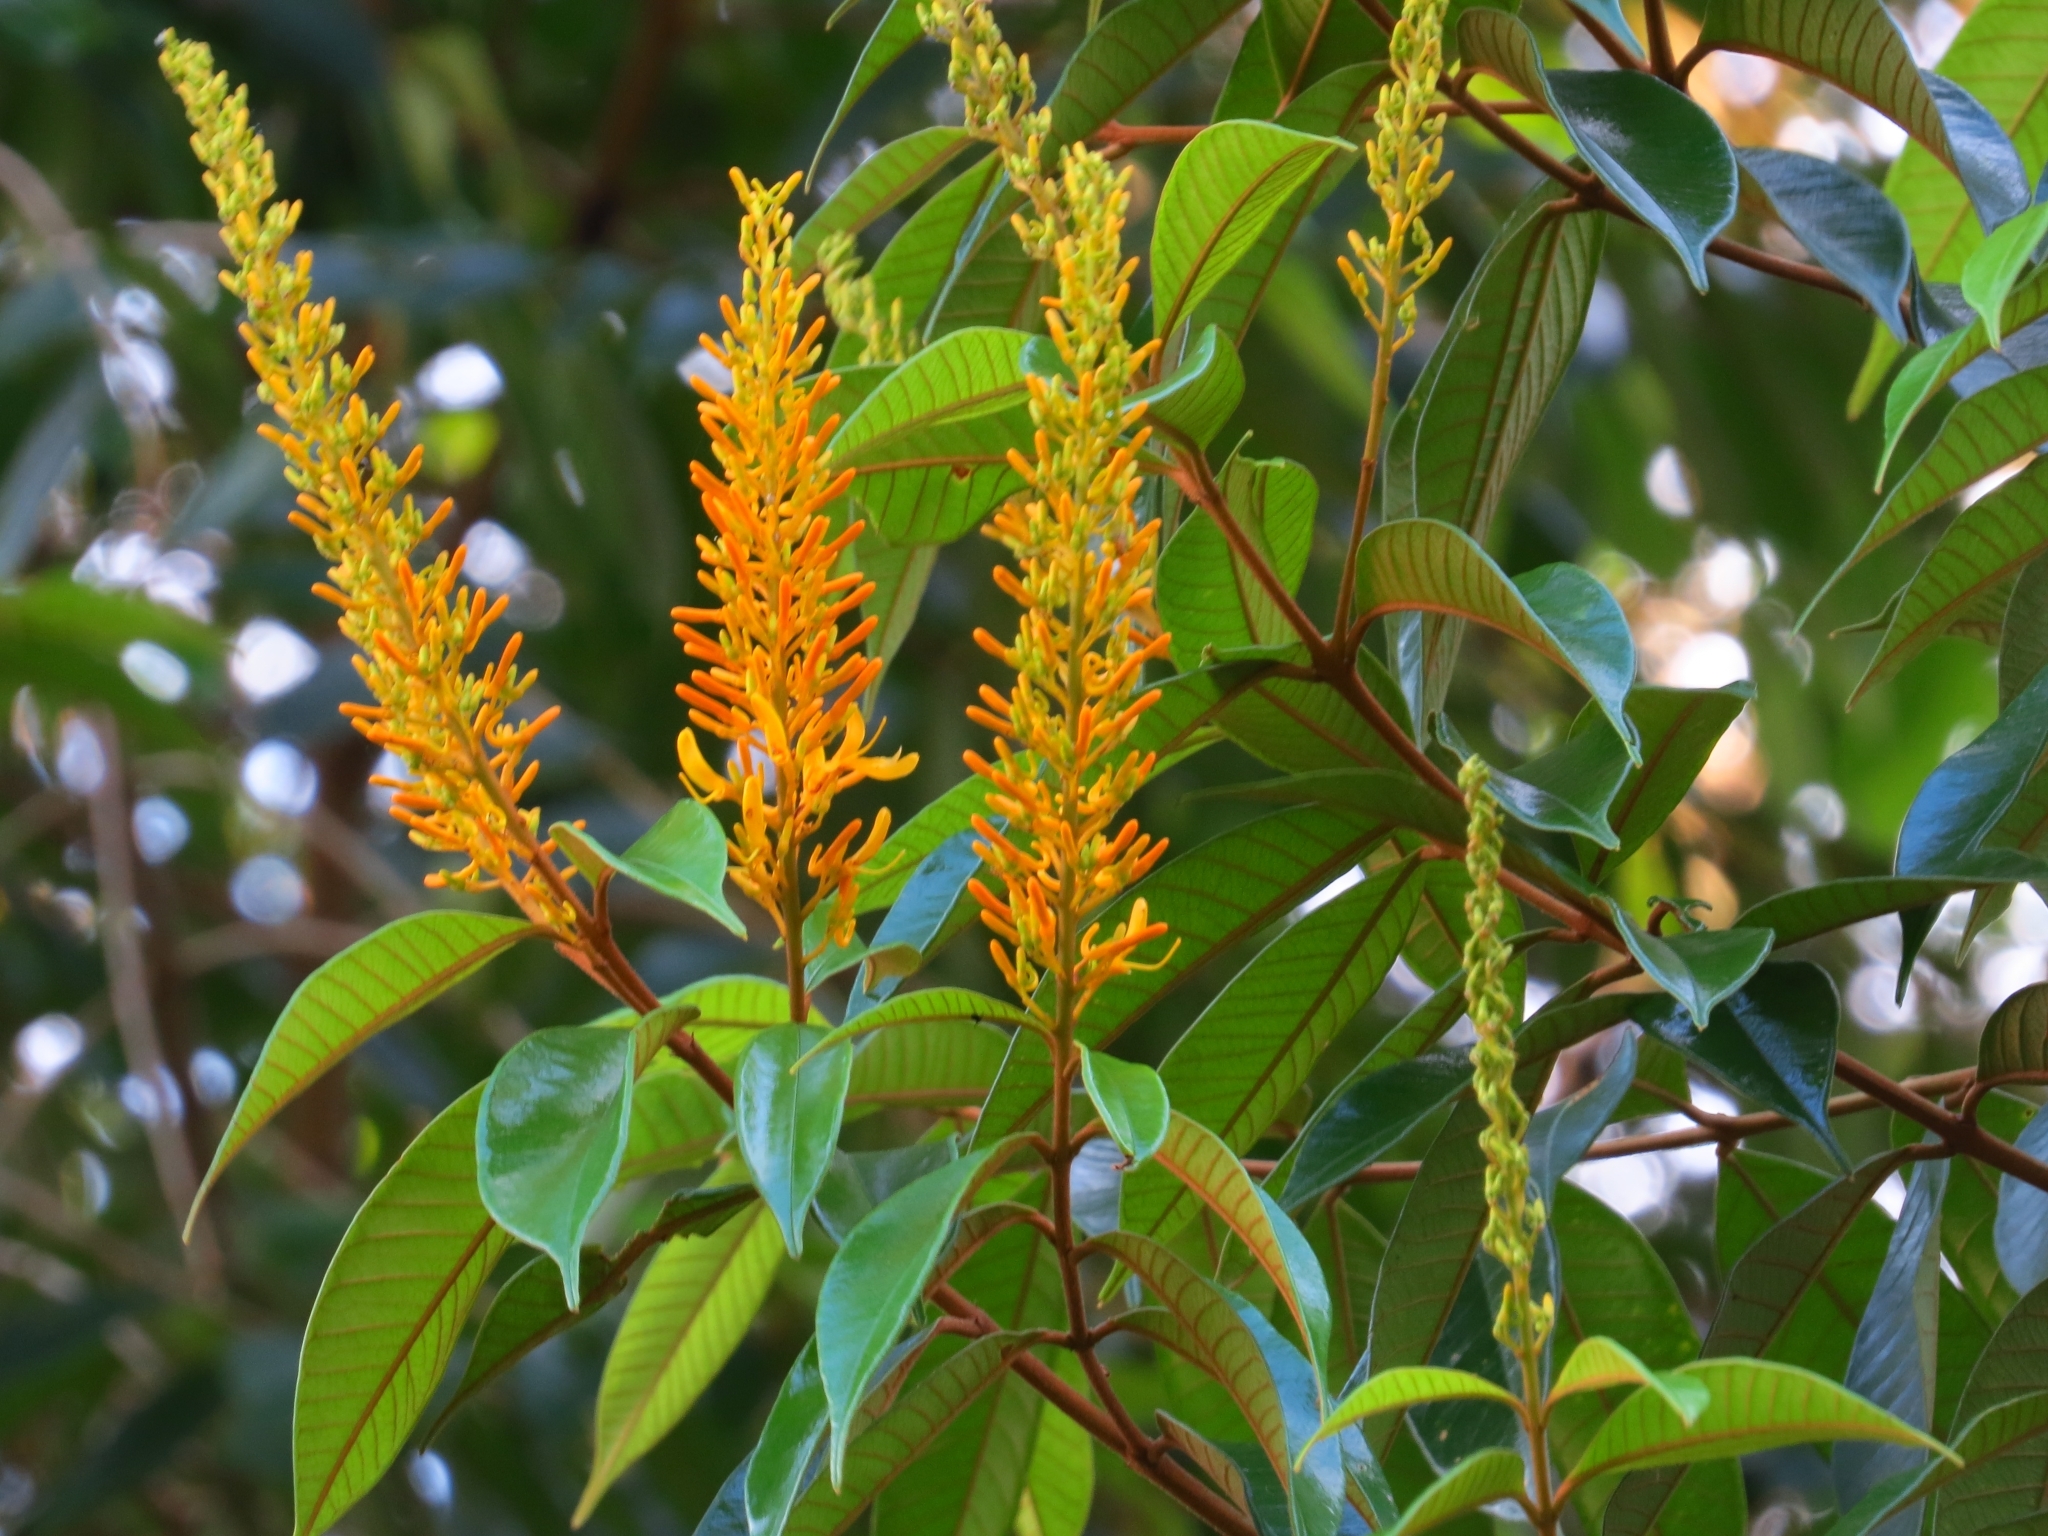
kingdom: Plantae
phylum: Tracheophyta
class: Magnoliopsida
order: Myrtales
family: Vochysiaceae
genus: Vochysia
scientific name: Vochysia ferruginea
